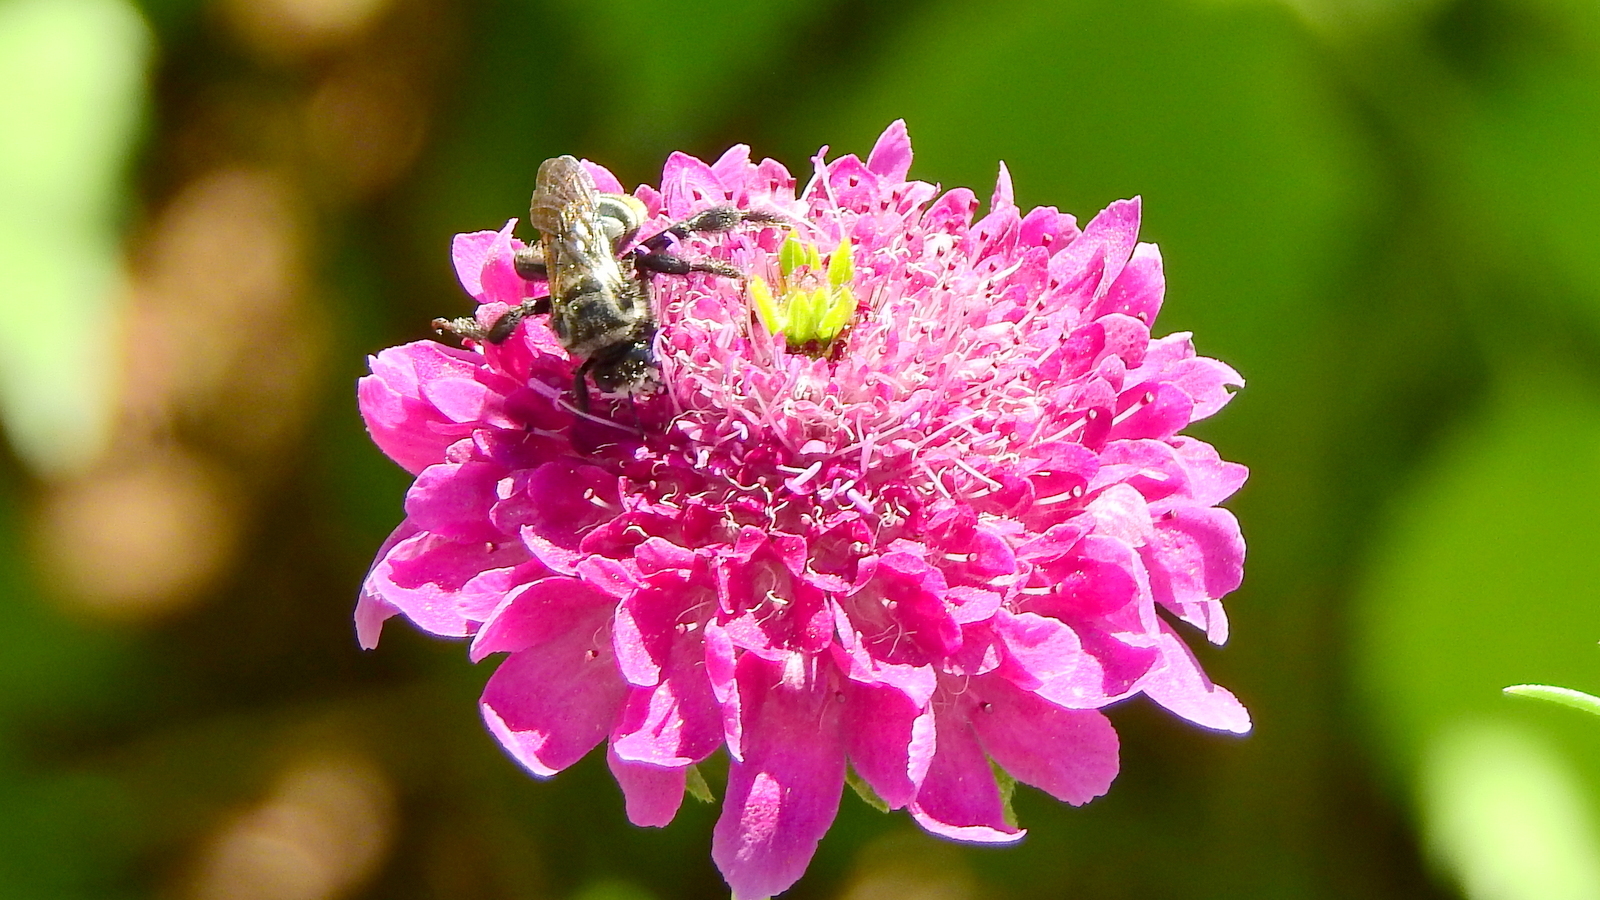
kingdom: Animalia
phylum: Arthropoda
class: Insecta
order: Hymenoptera
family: Apidae
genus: Ptilothrix
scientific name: Ptilothrix tricolor
